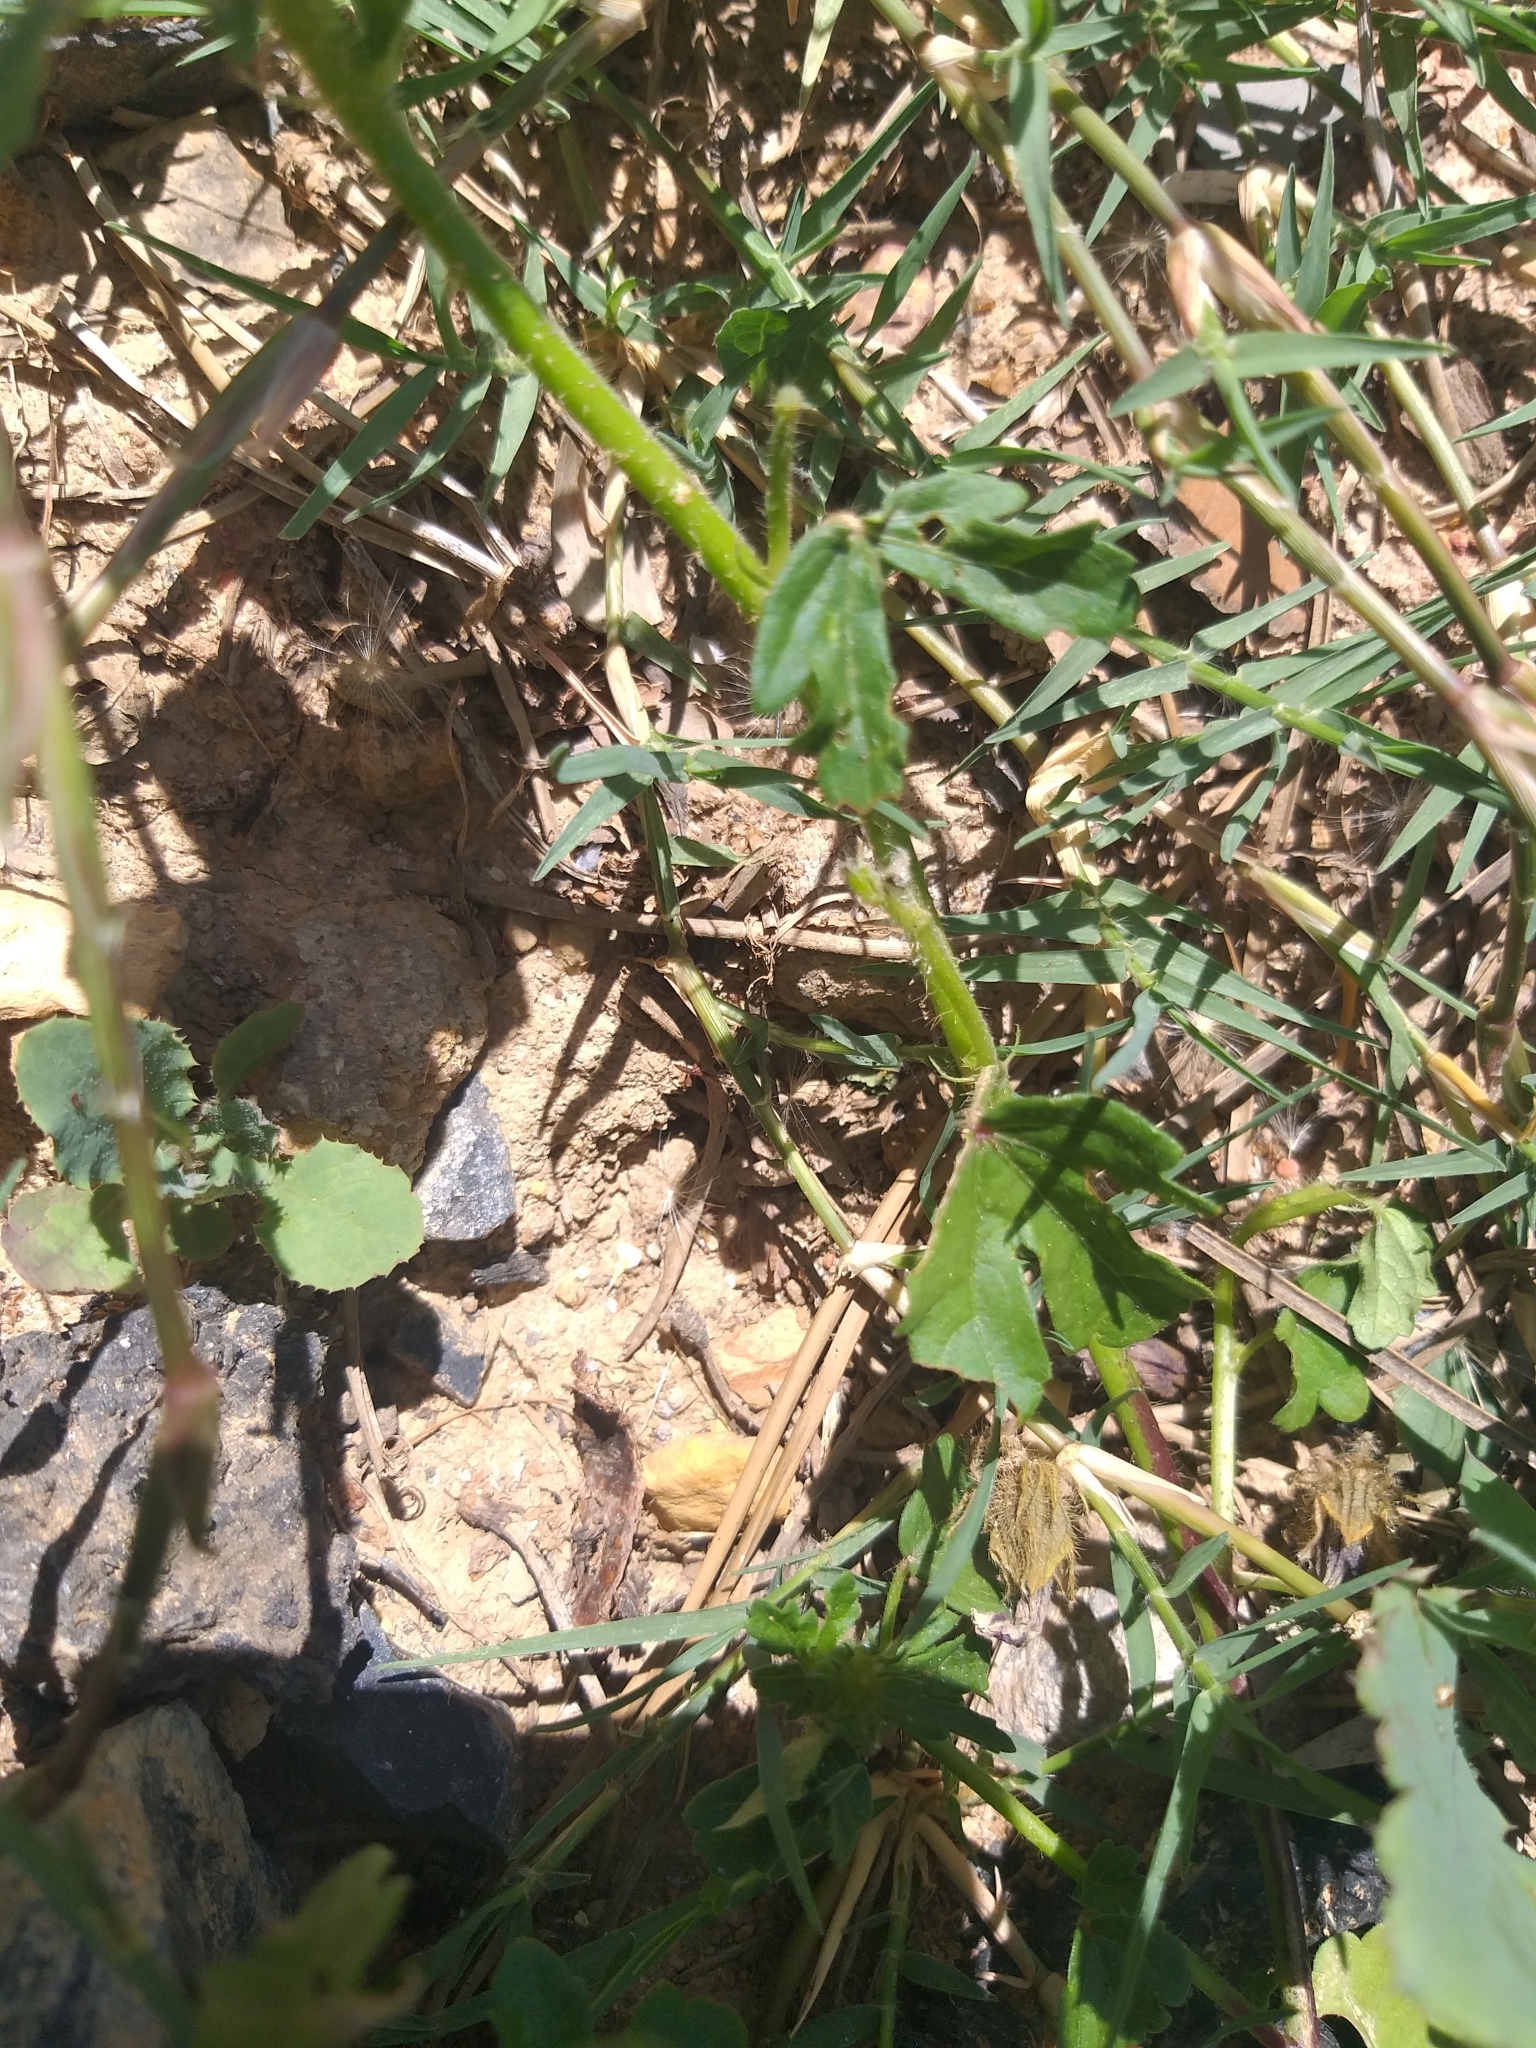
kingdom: Plantae
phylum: Tracheophyta
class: Magnoliopsida
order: Malvales
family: Malvaceae
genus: Hibiscus
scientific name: Hibiscus trionum
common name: Bladder ketmia
